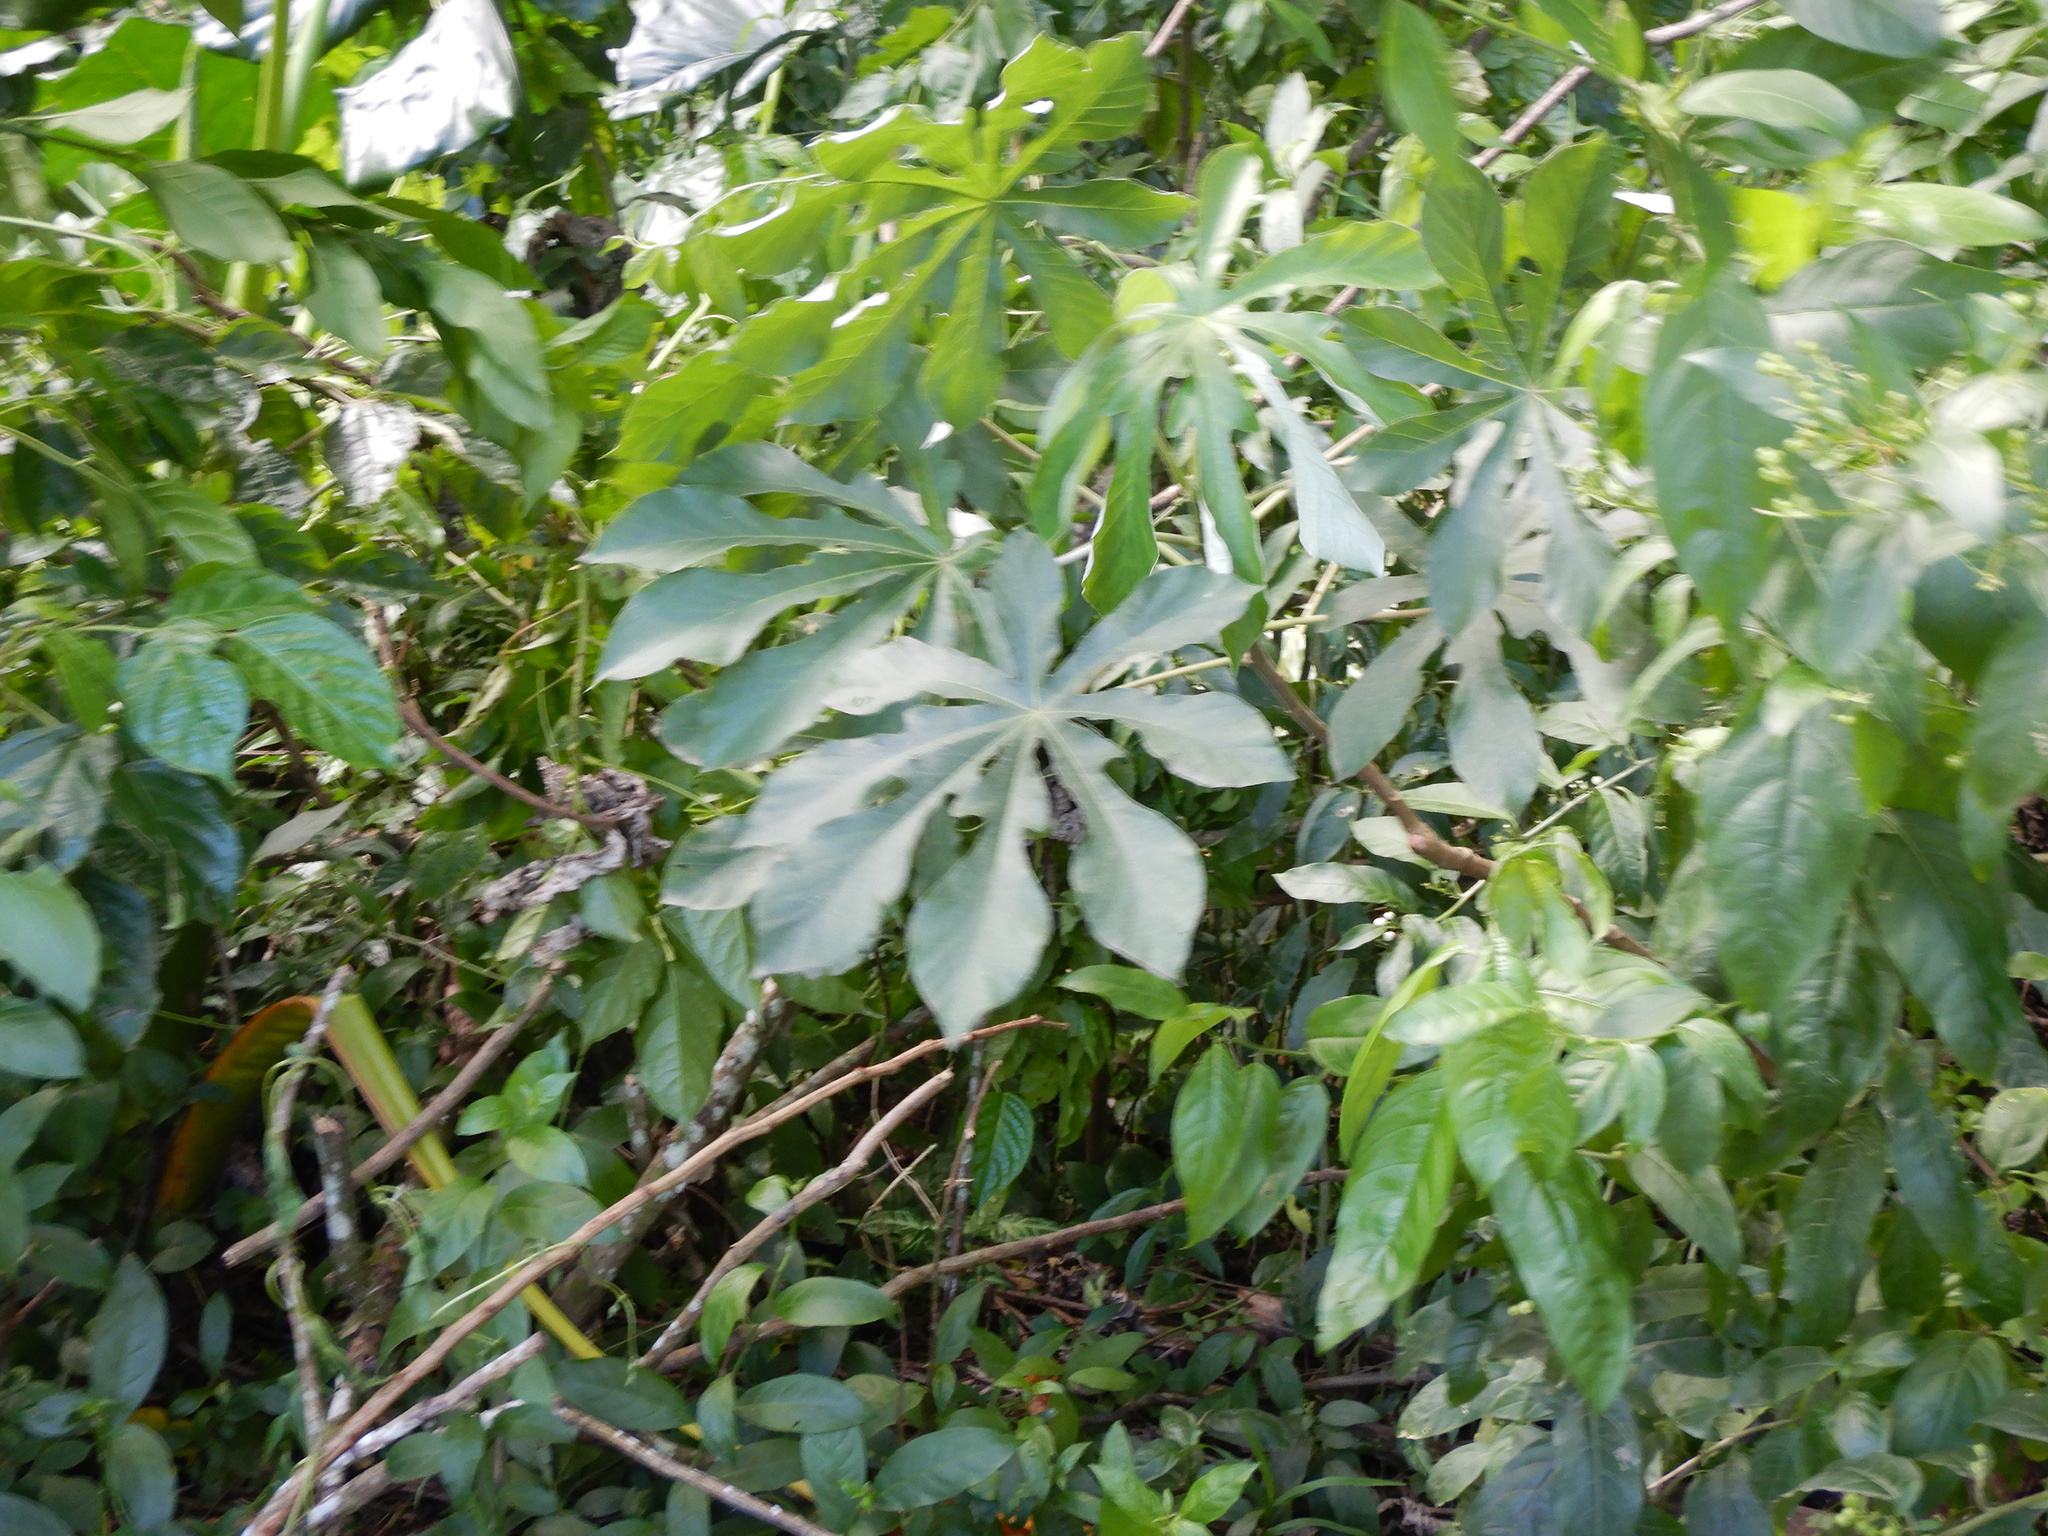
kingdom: Plantae
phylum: Tracheophyta
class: Magnoliopsida
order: Rosales
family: Urticaceae
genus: Cecropia
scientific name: Cecropia pachystachya
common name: Ambay pumpwood
